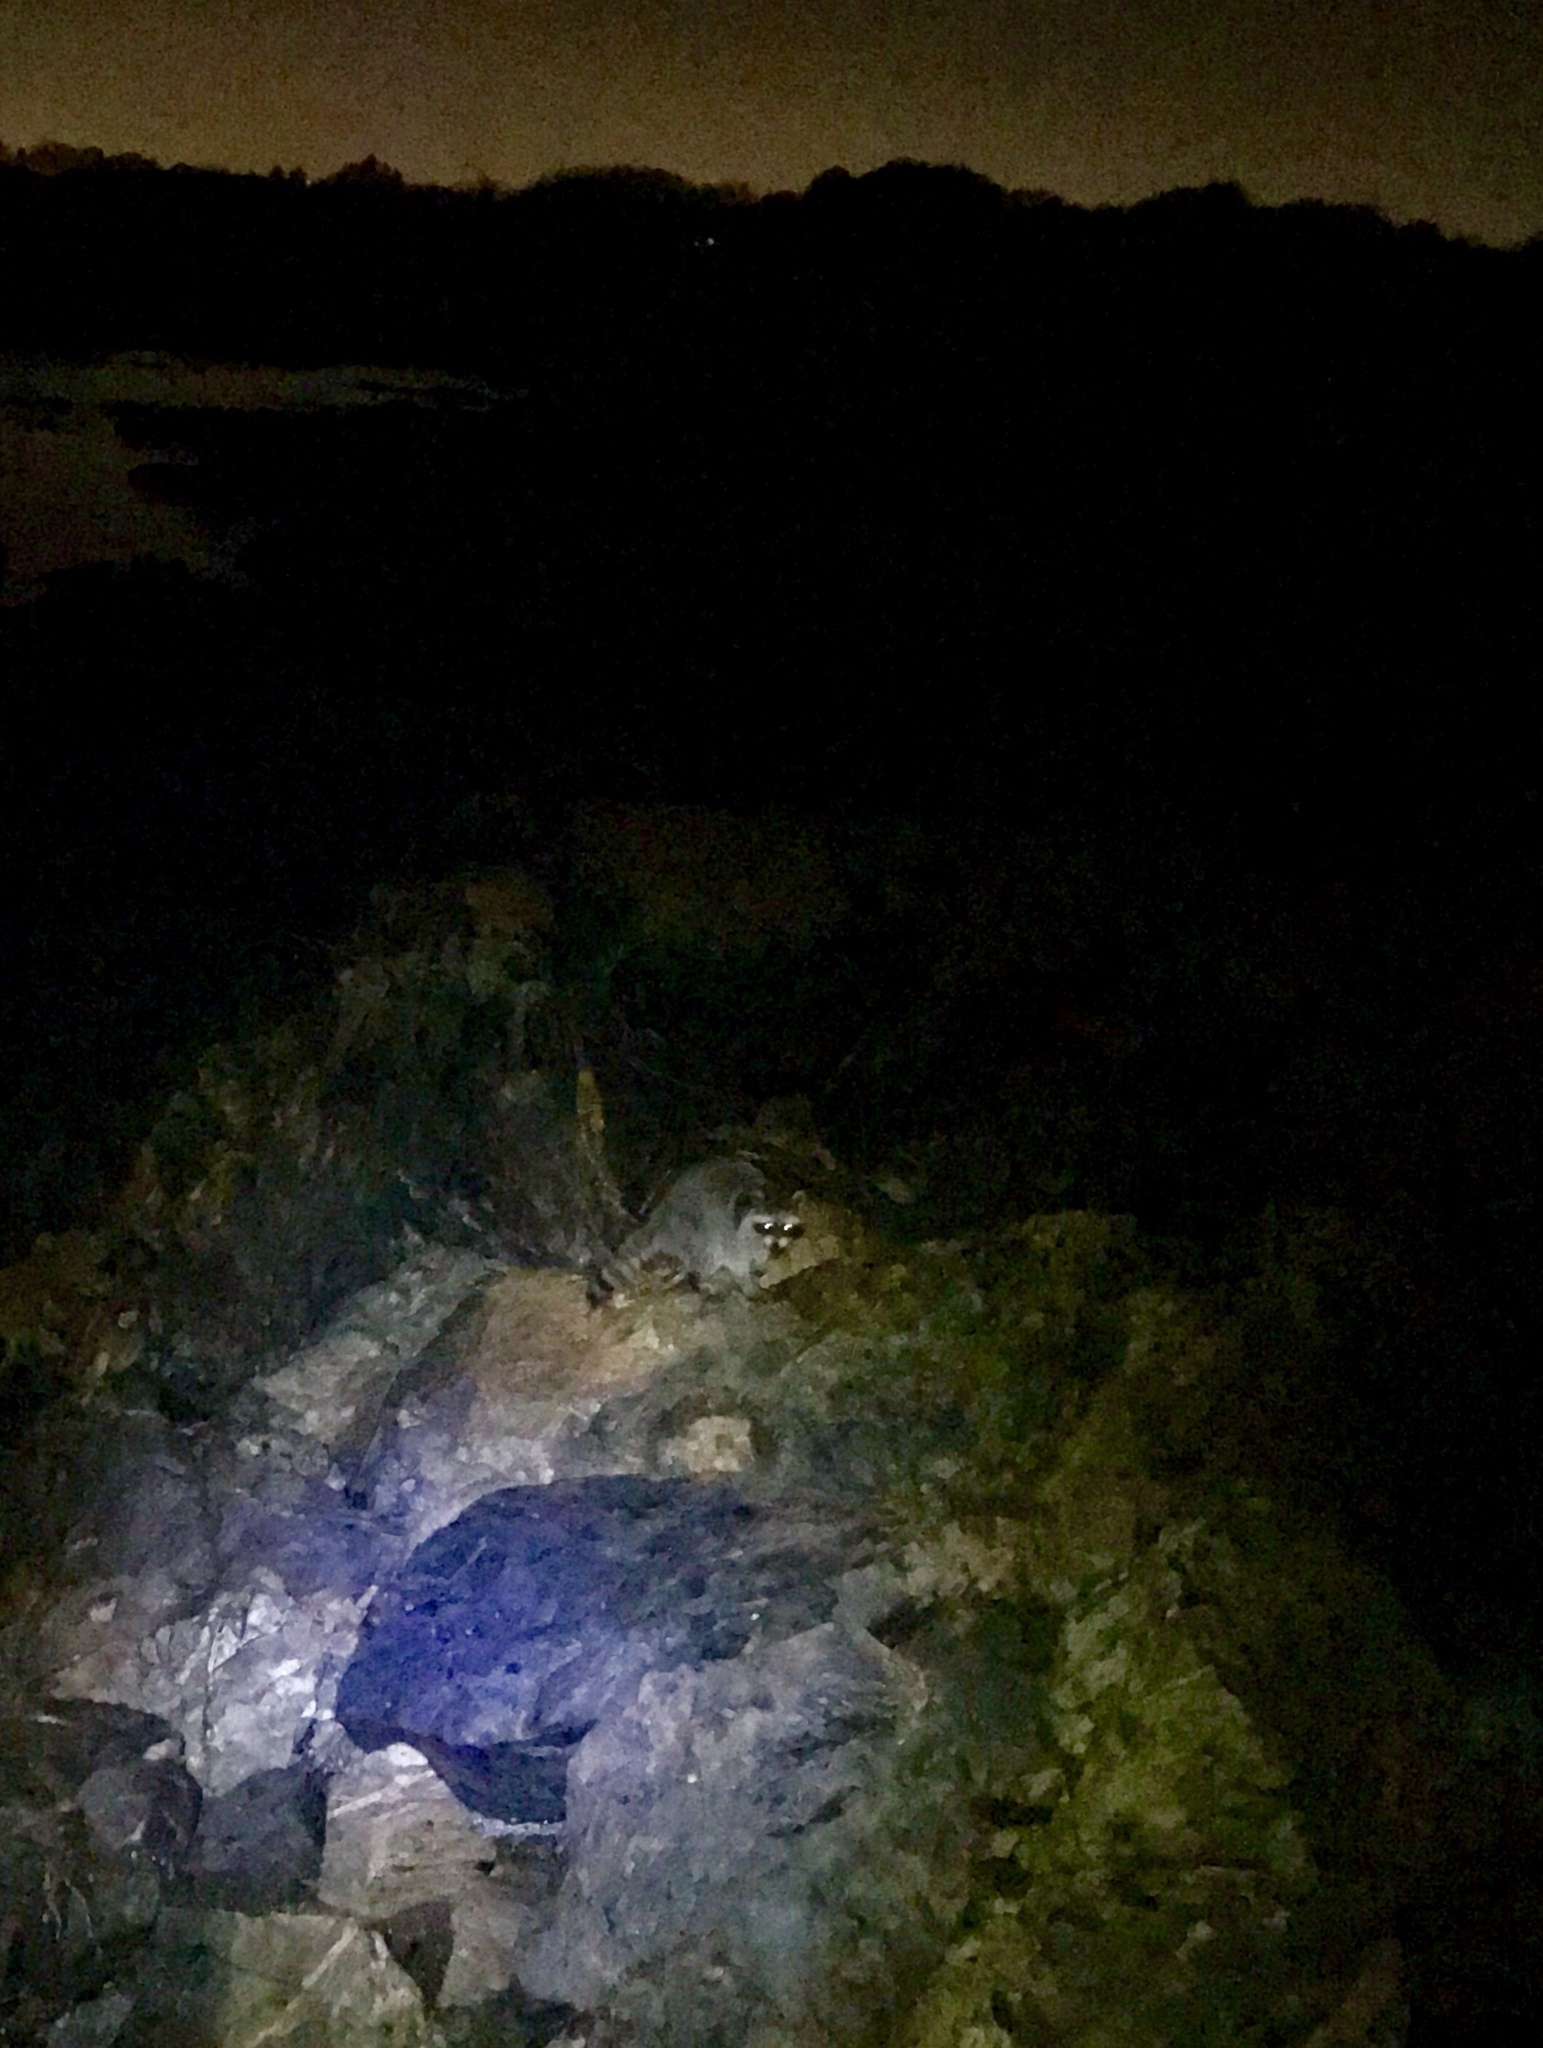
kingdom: Animalia
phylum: Chordata
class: Mammalia
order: Carnivora
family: Procyonidae
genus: Procyon
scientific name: Procyon lotor
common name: Raccoon
